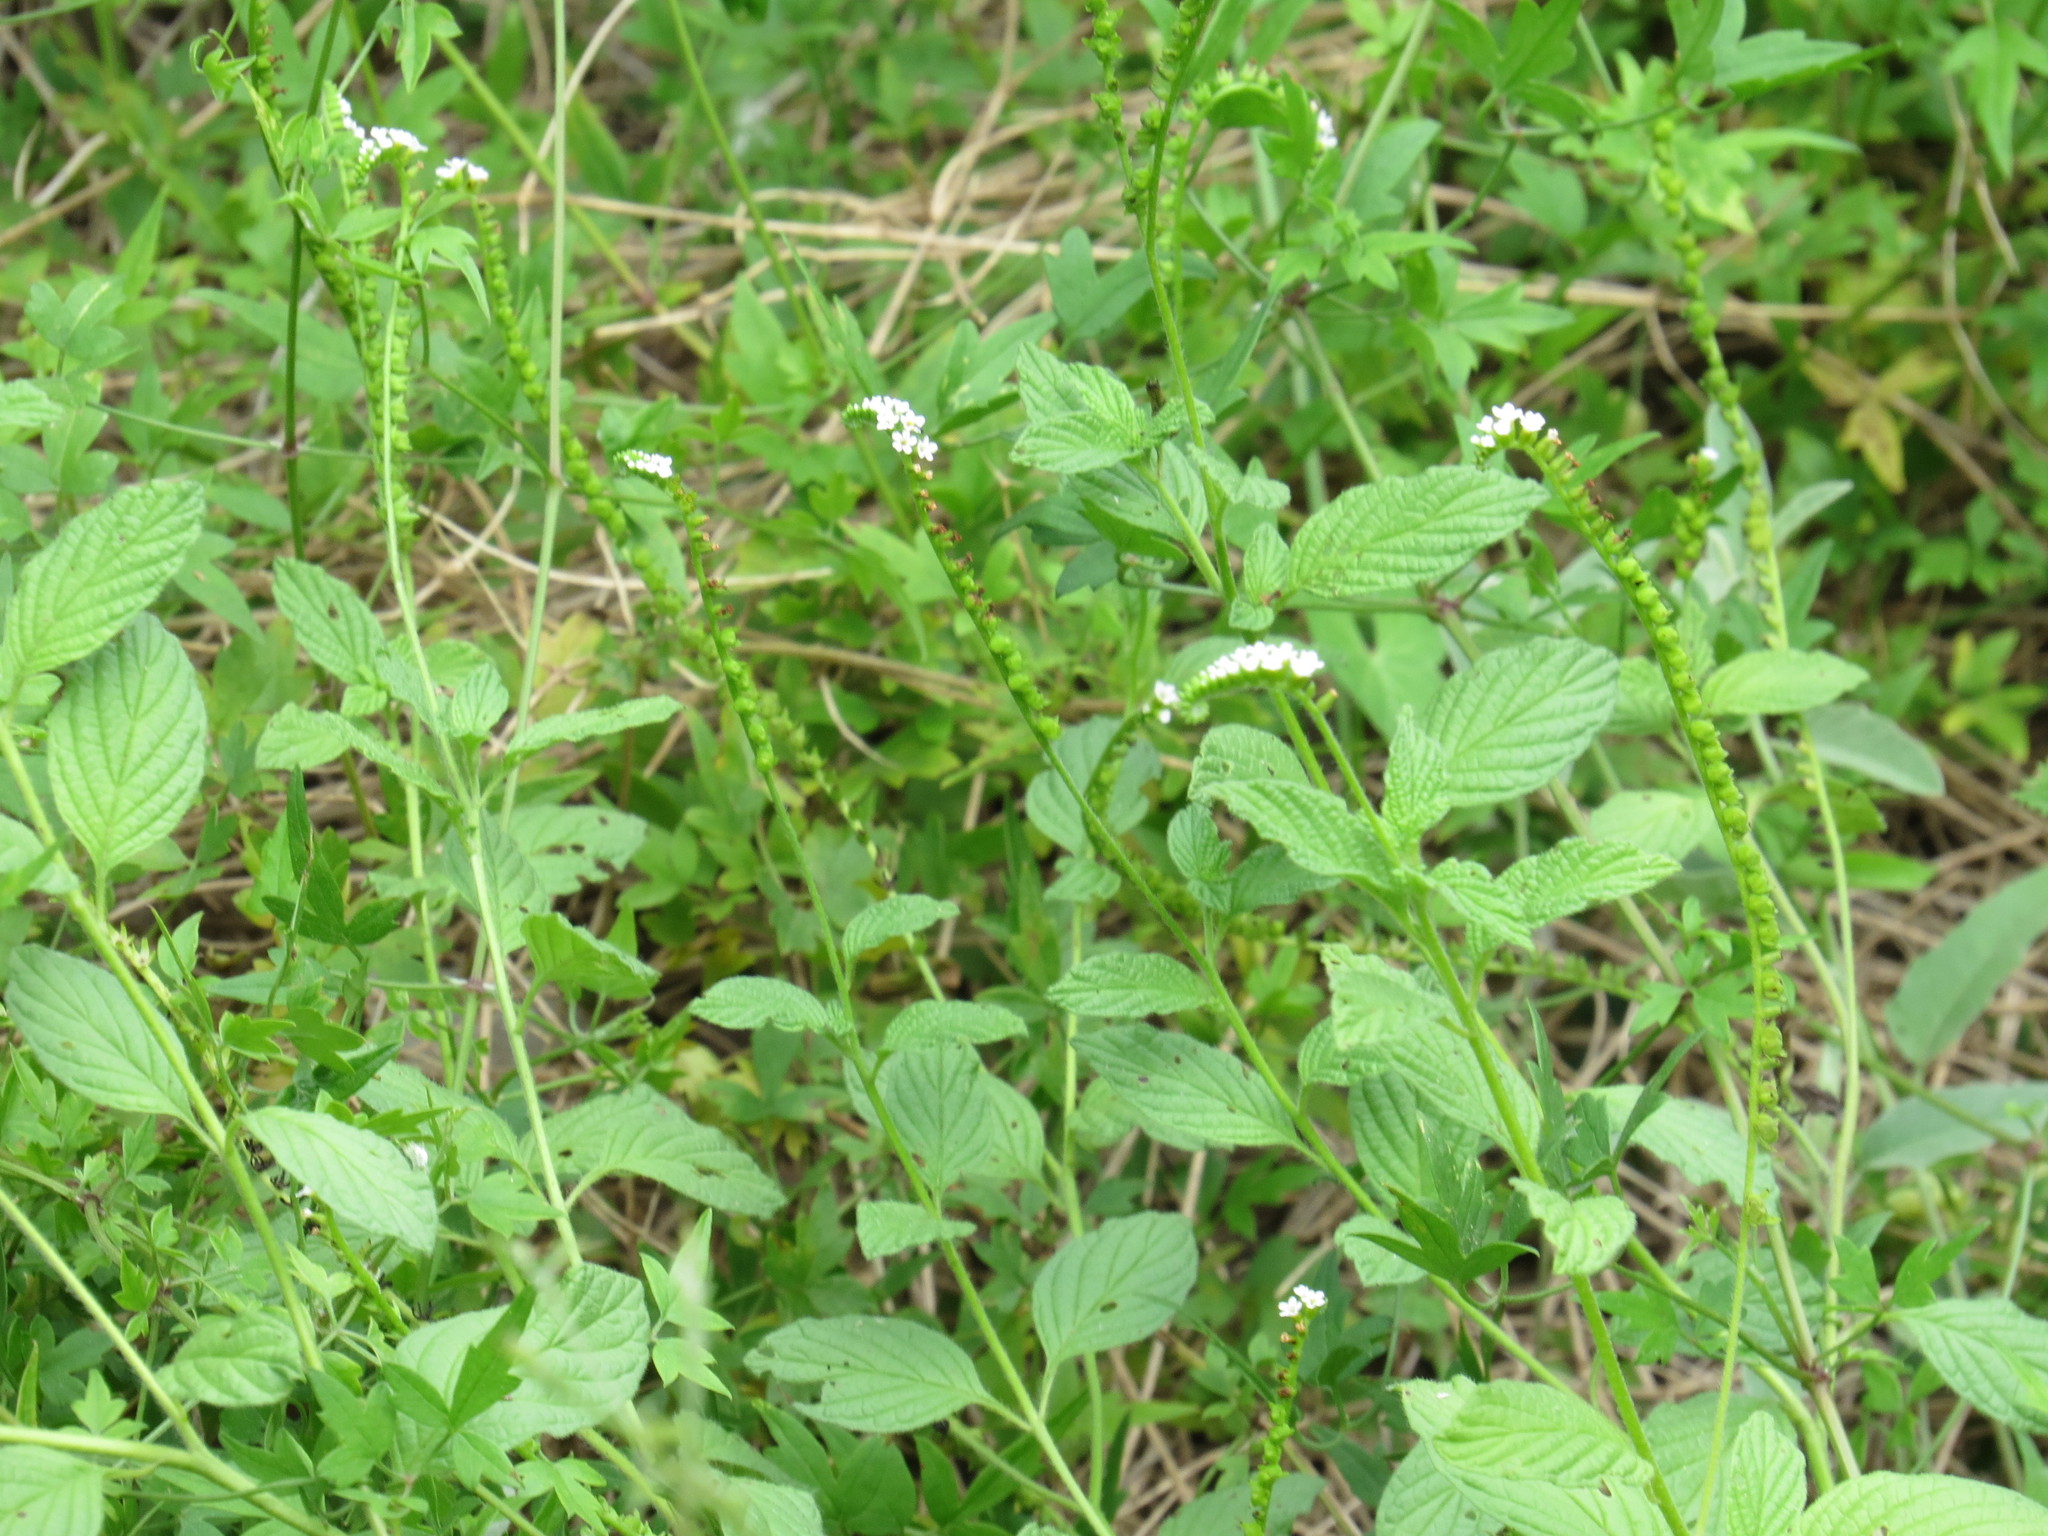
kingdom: Plantae
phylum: Tracheophyta
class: Magnoliopsida
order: Boraginales
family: Heliotropiaceae
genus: Heliotropium
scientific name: Heliotropium angiospermum
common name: Eye bright
